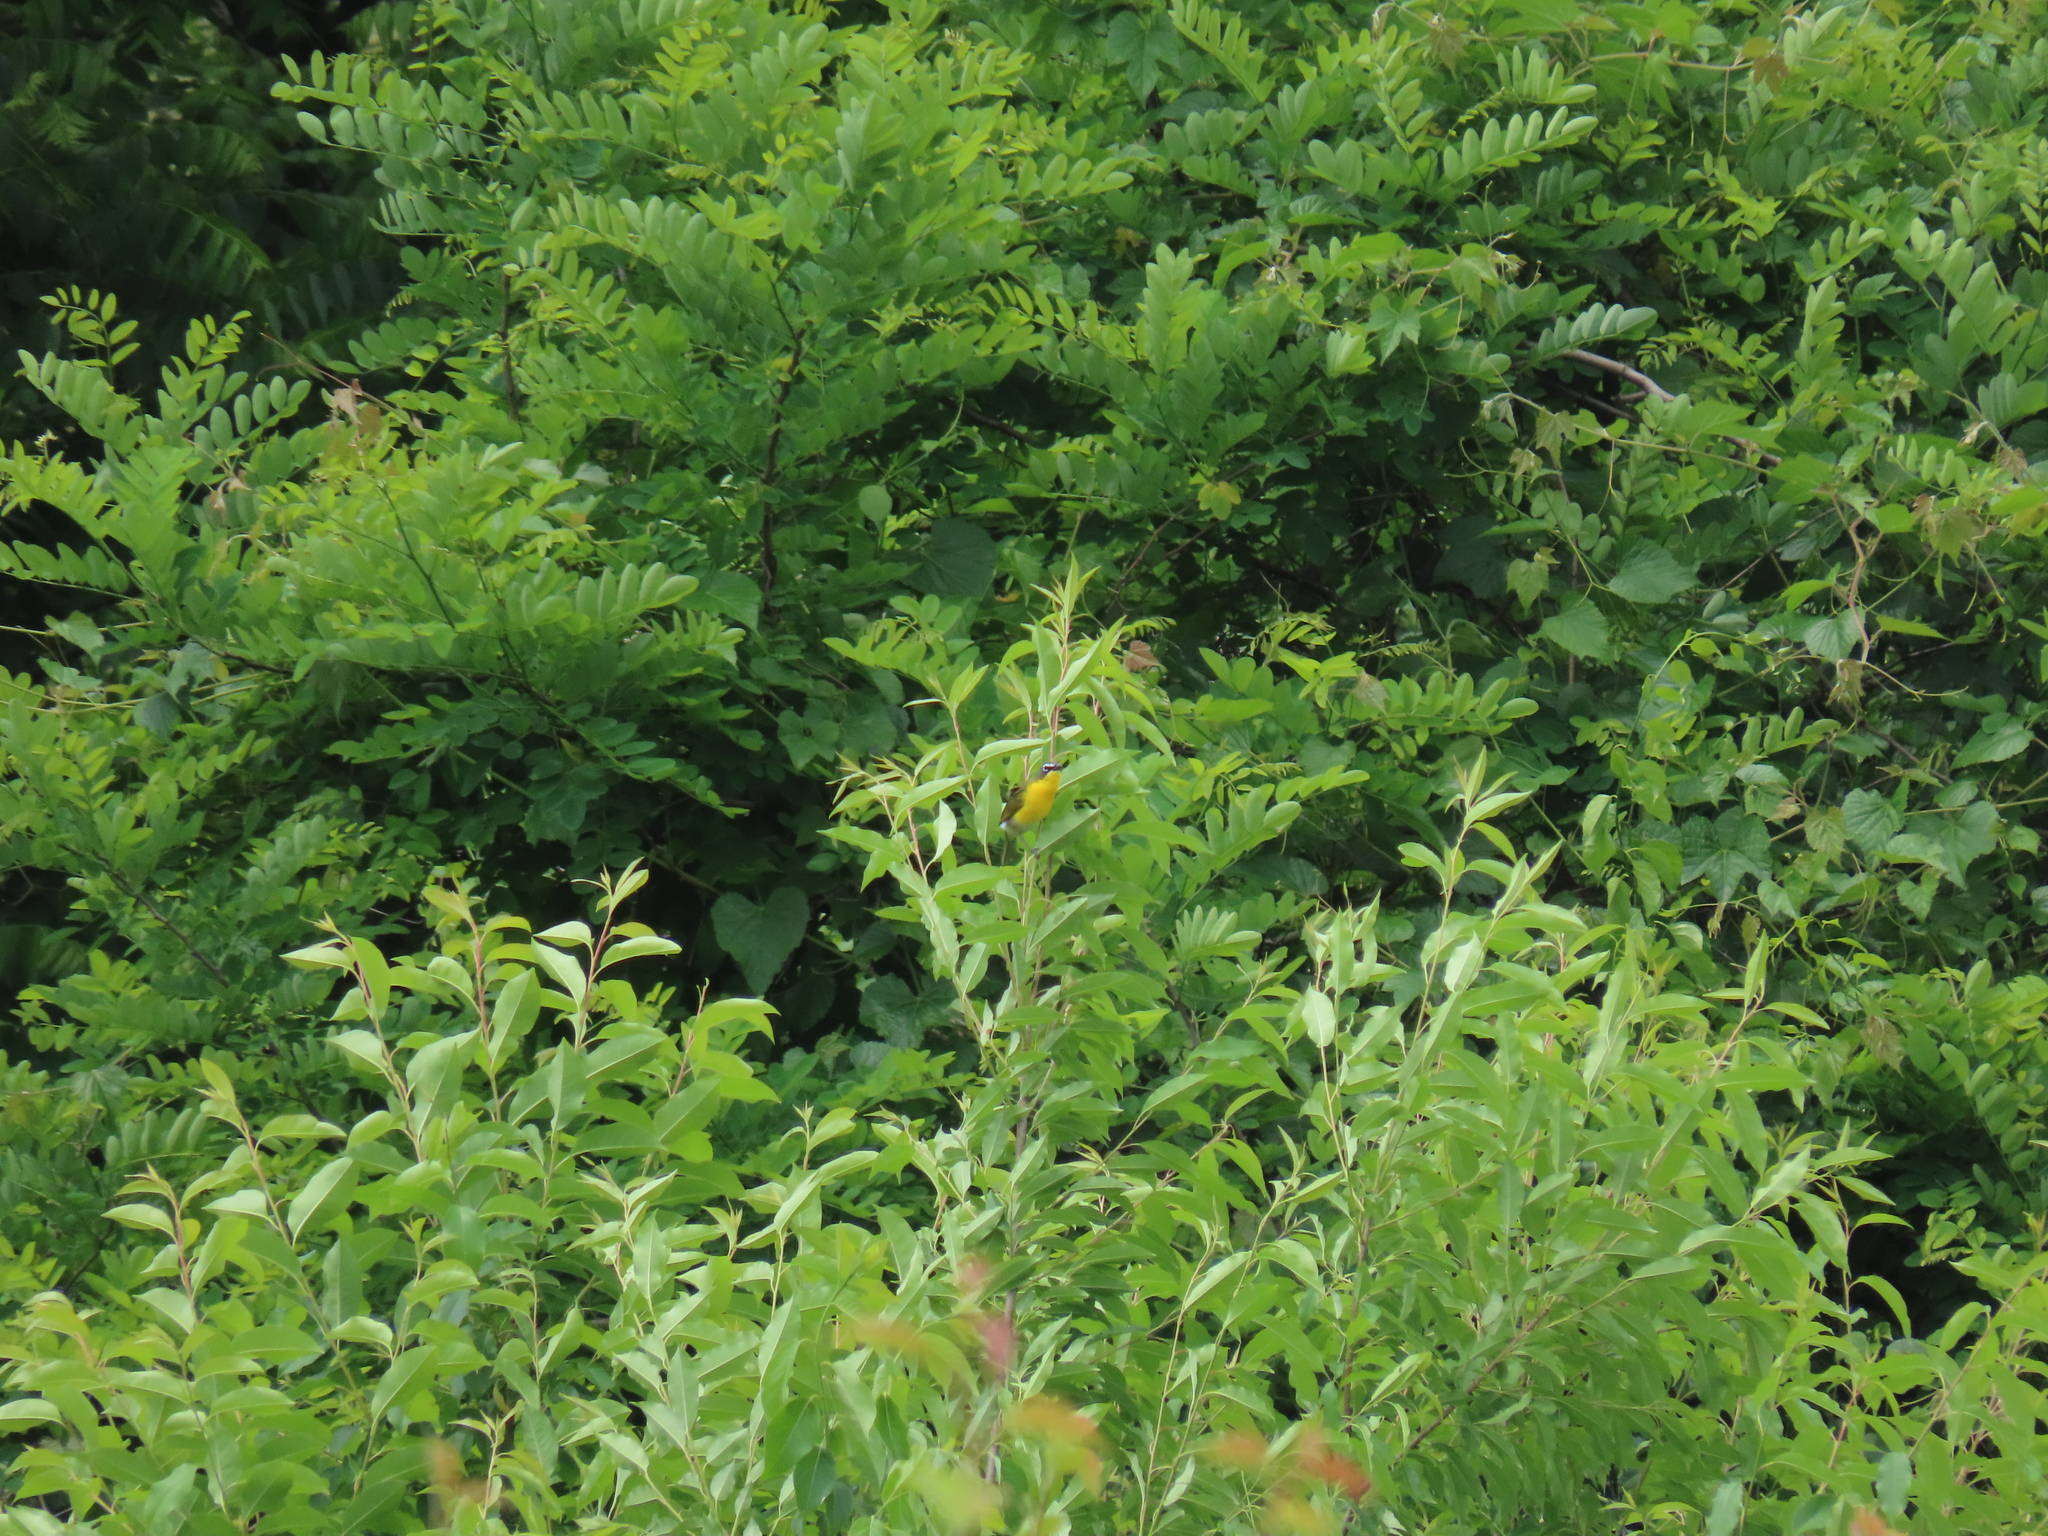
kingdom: Animalia
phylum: Chordata
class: Aves
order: Passeriformes
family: Parulidae
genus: Icteria
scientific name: Icteria virens
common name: Yellow-breasted chat
